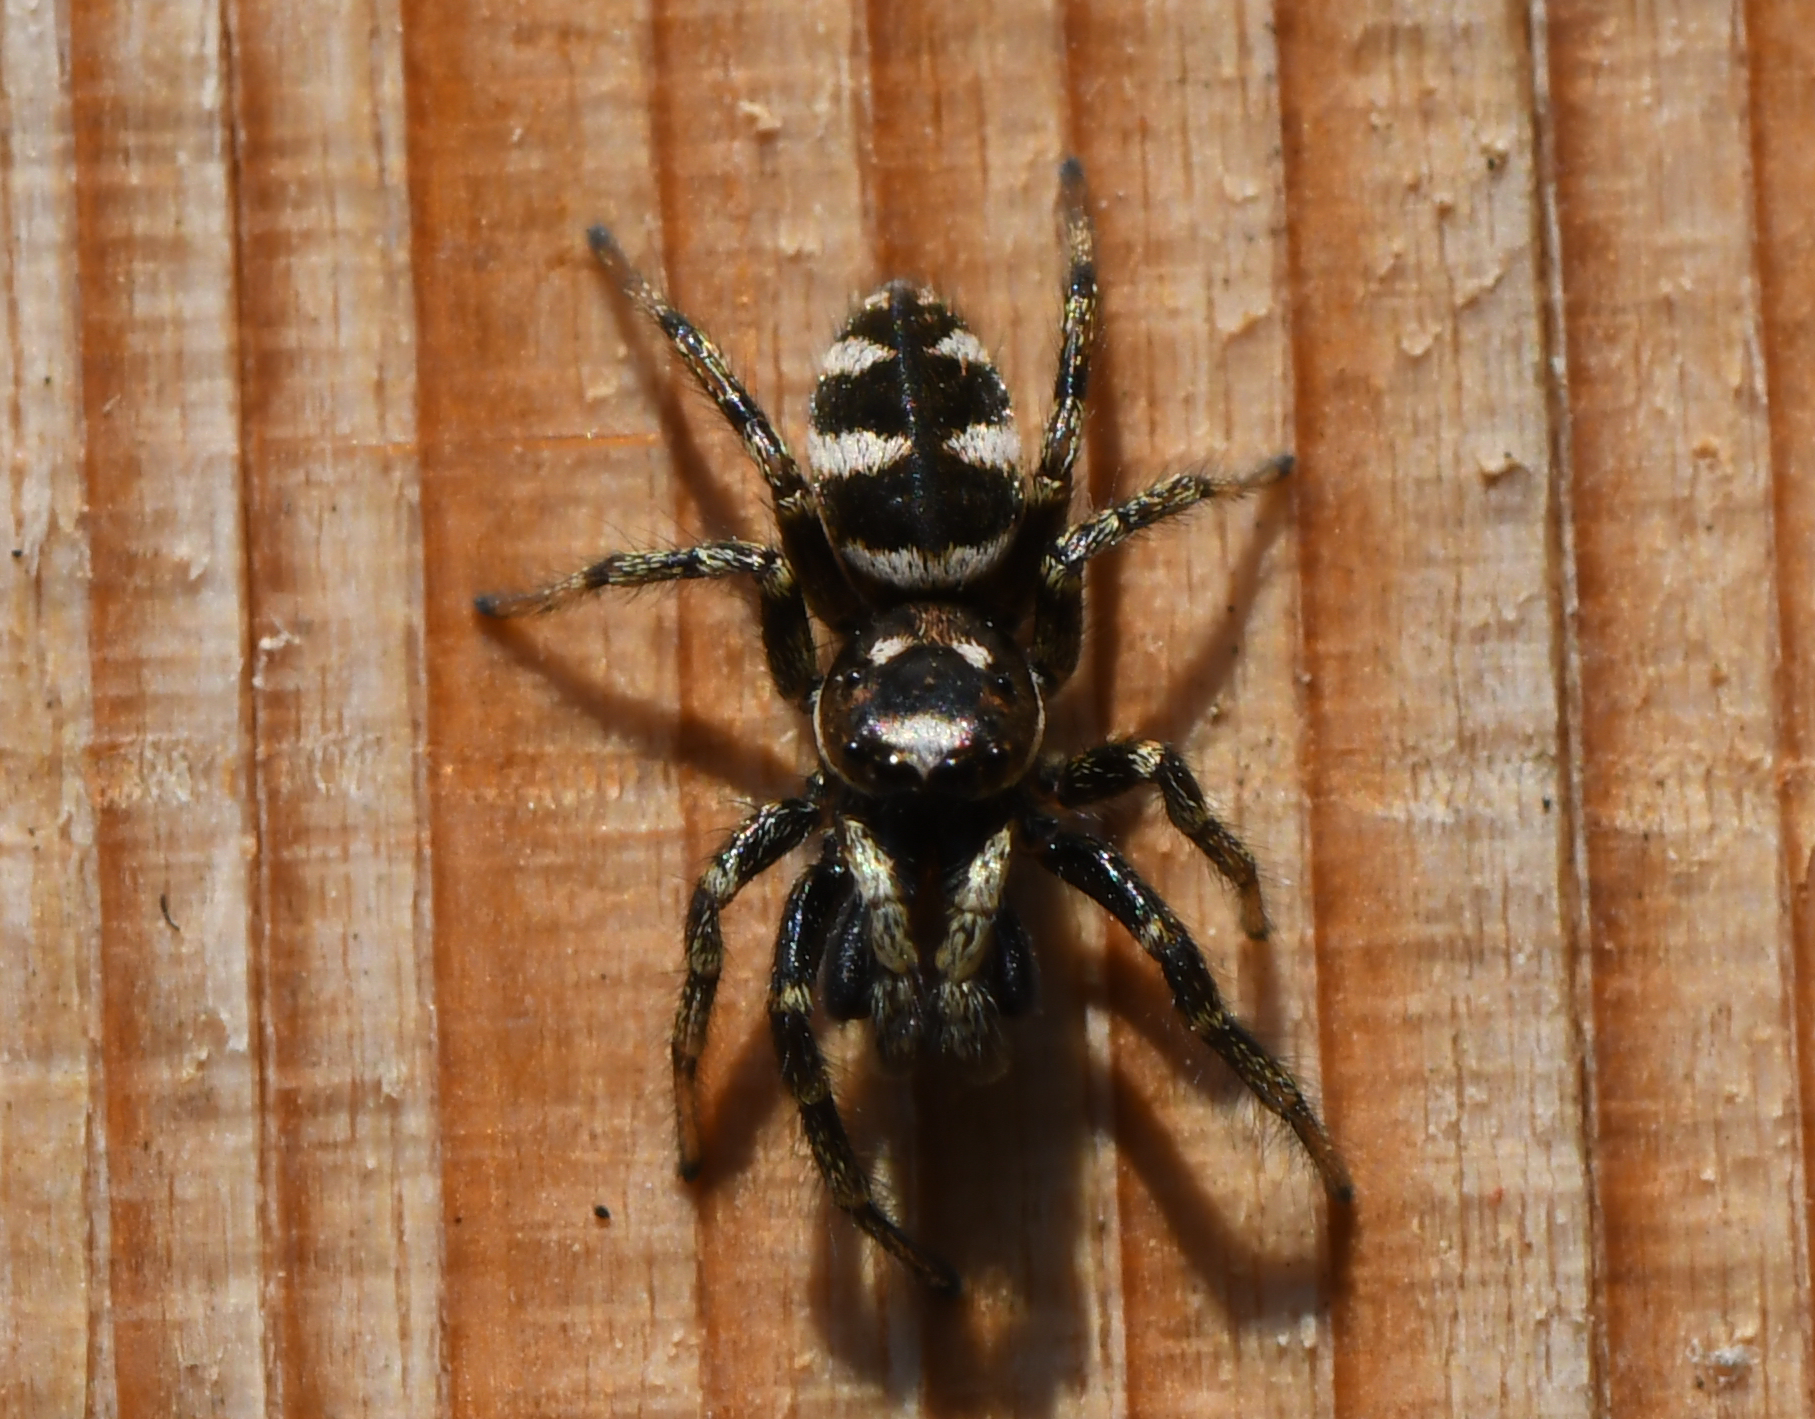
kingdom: Animalia
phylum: Arthropoda
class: Arachnida
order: Araneae
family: Salticidae
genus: Salticus
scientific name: Salticus scenicus
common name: Zebra jumper
